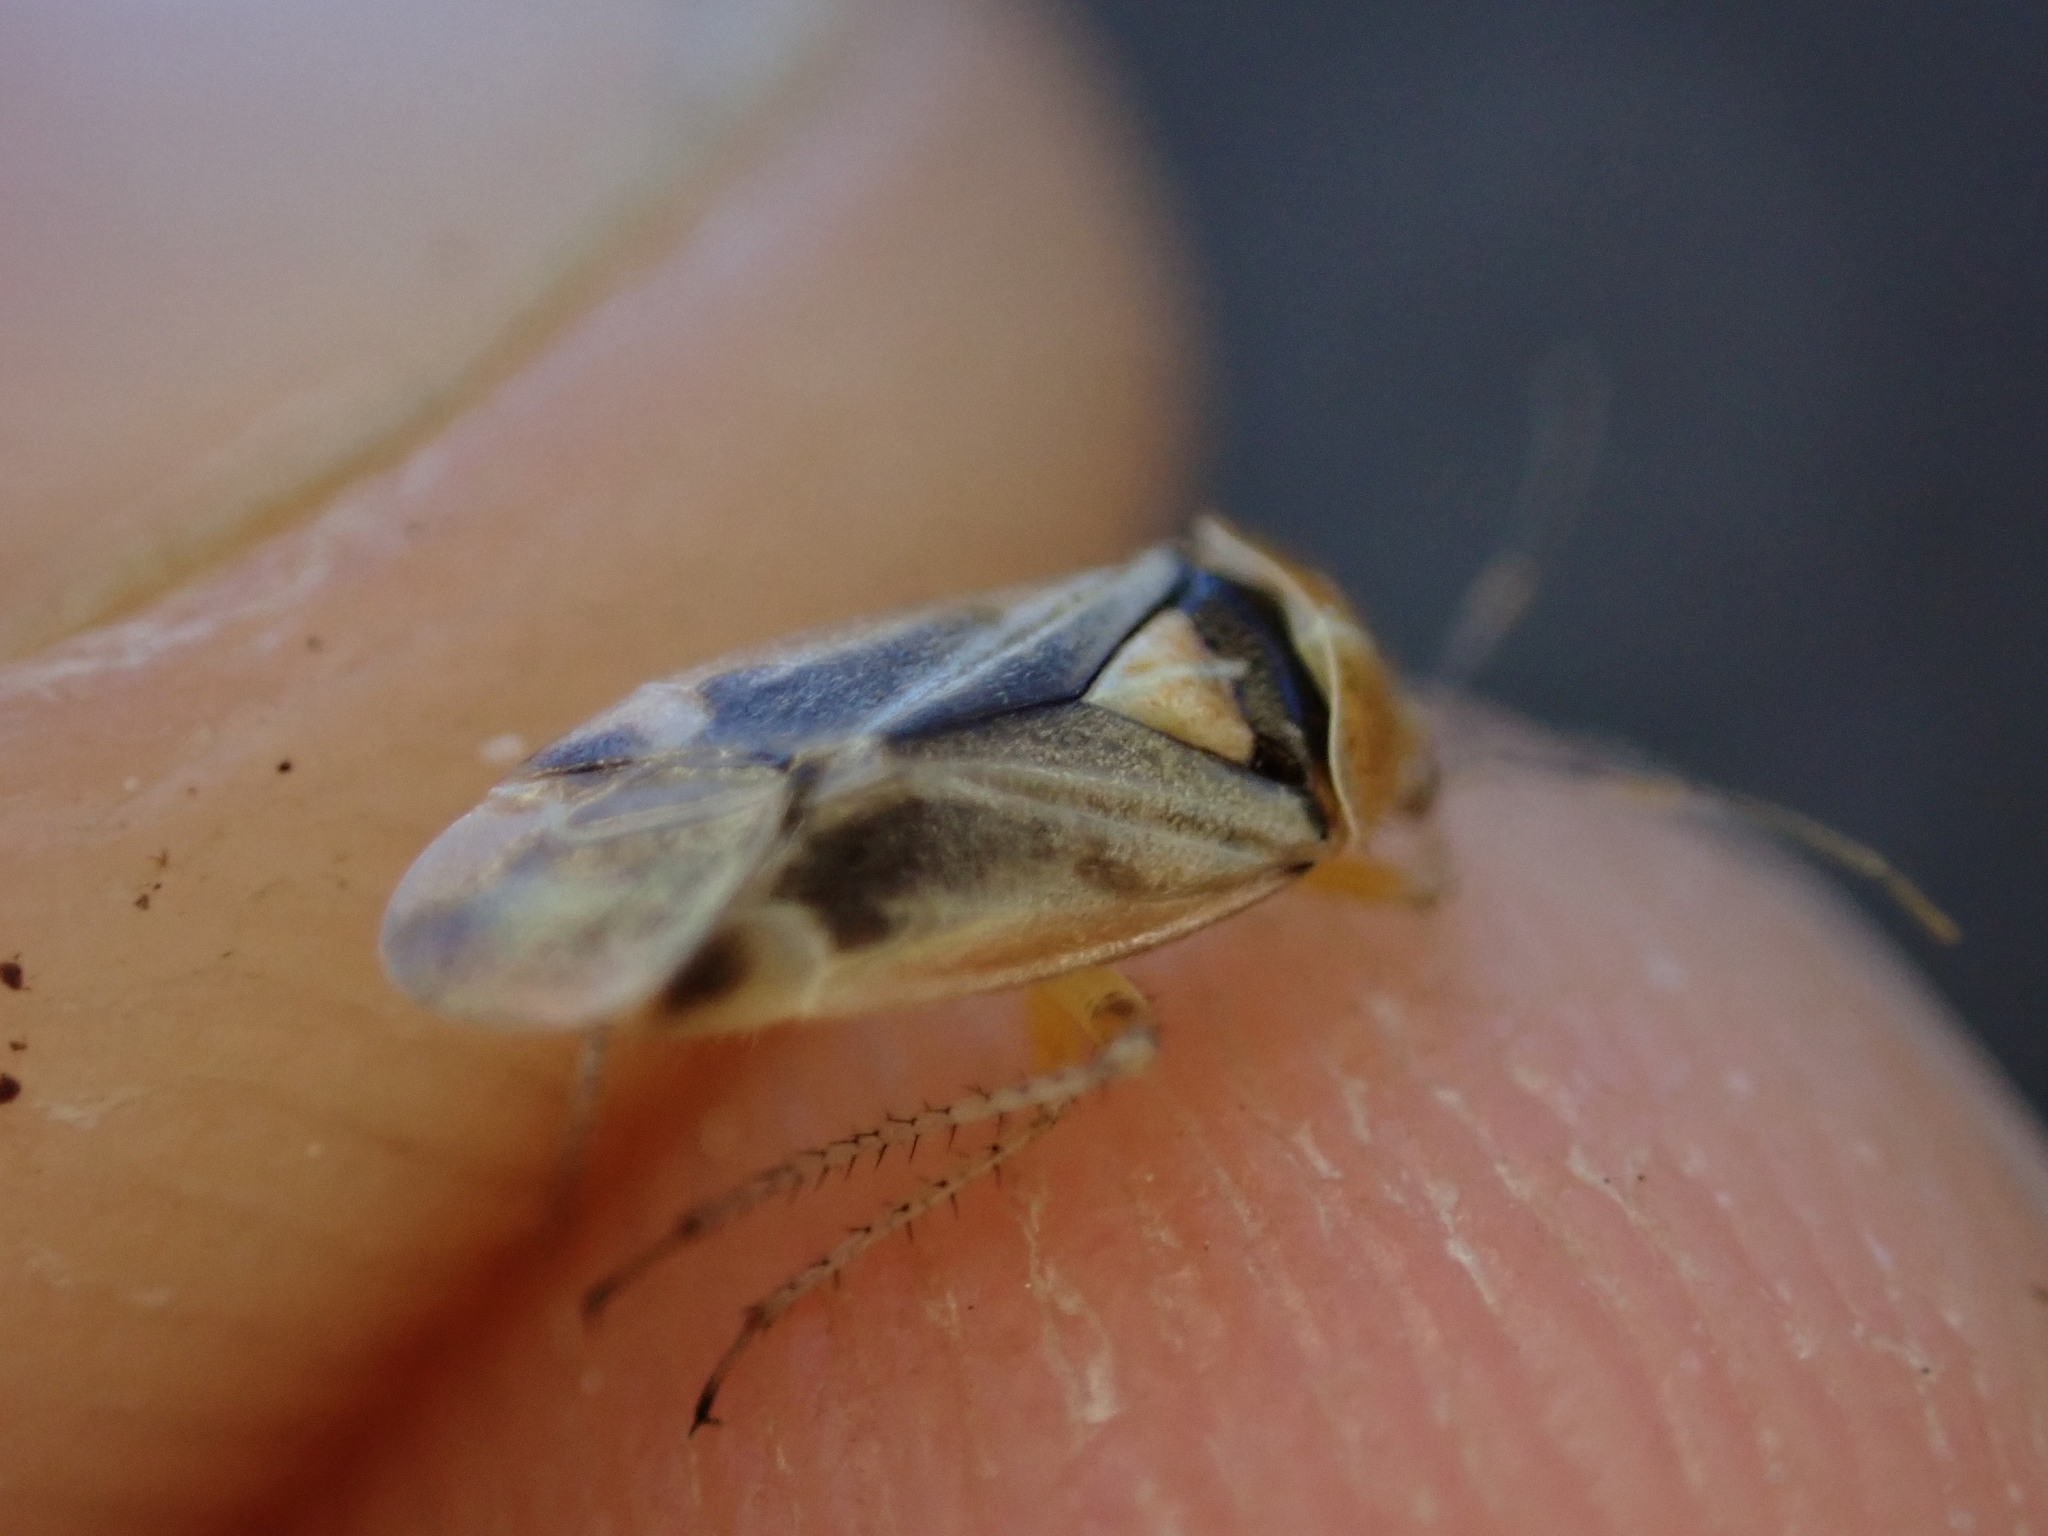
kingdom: Animalia
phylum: Arthropoda
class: Insecta
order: Hemiptera
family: Miridae
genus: Harpocera
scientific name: Harpocera thoracica
